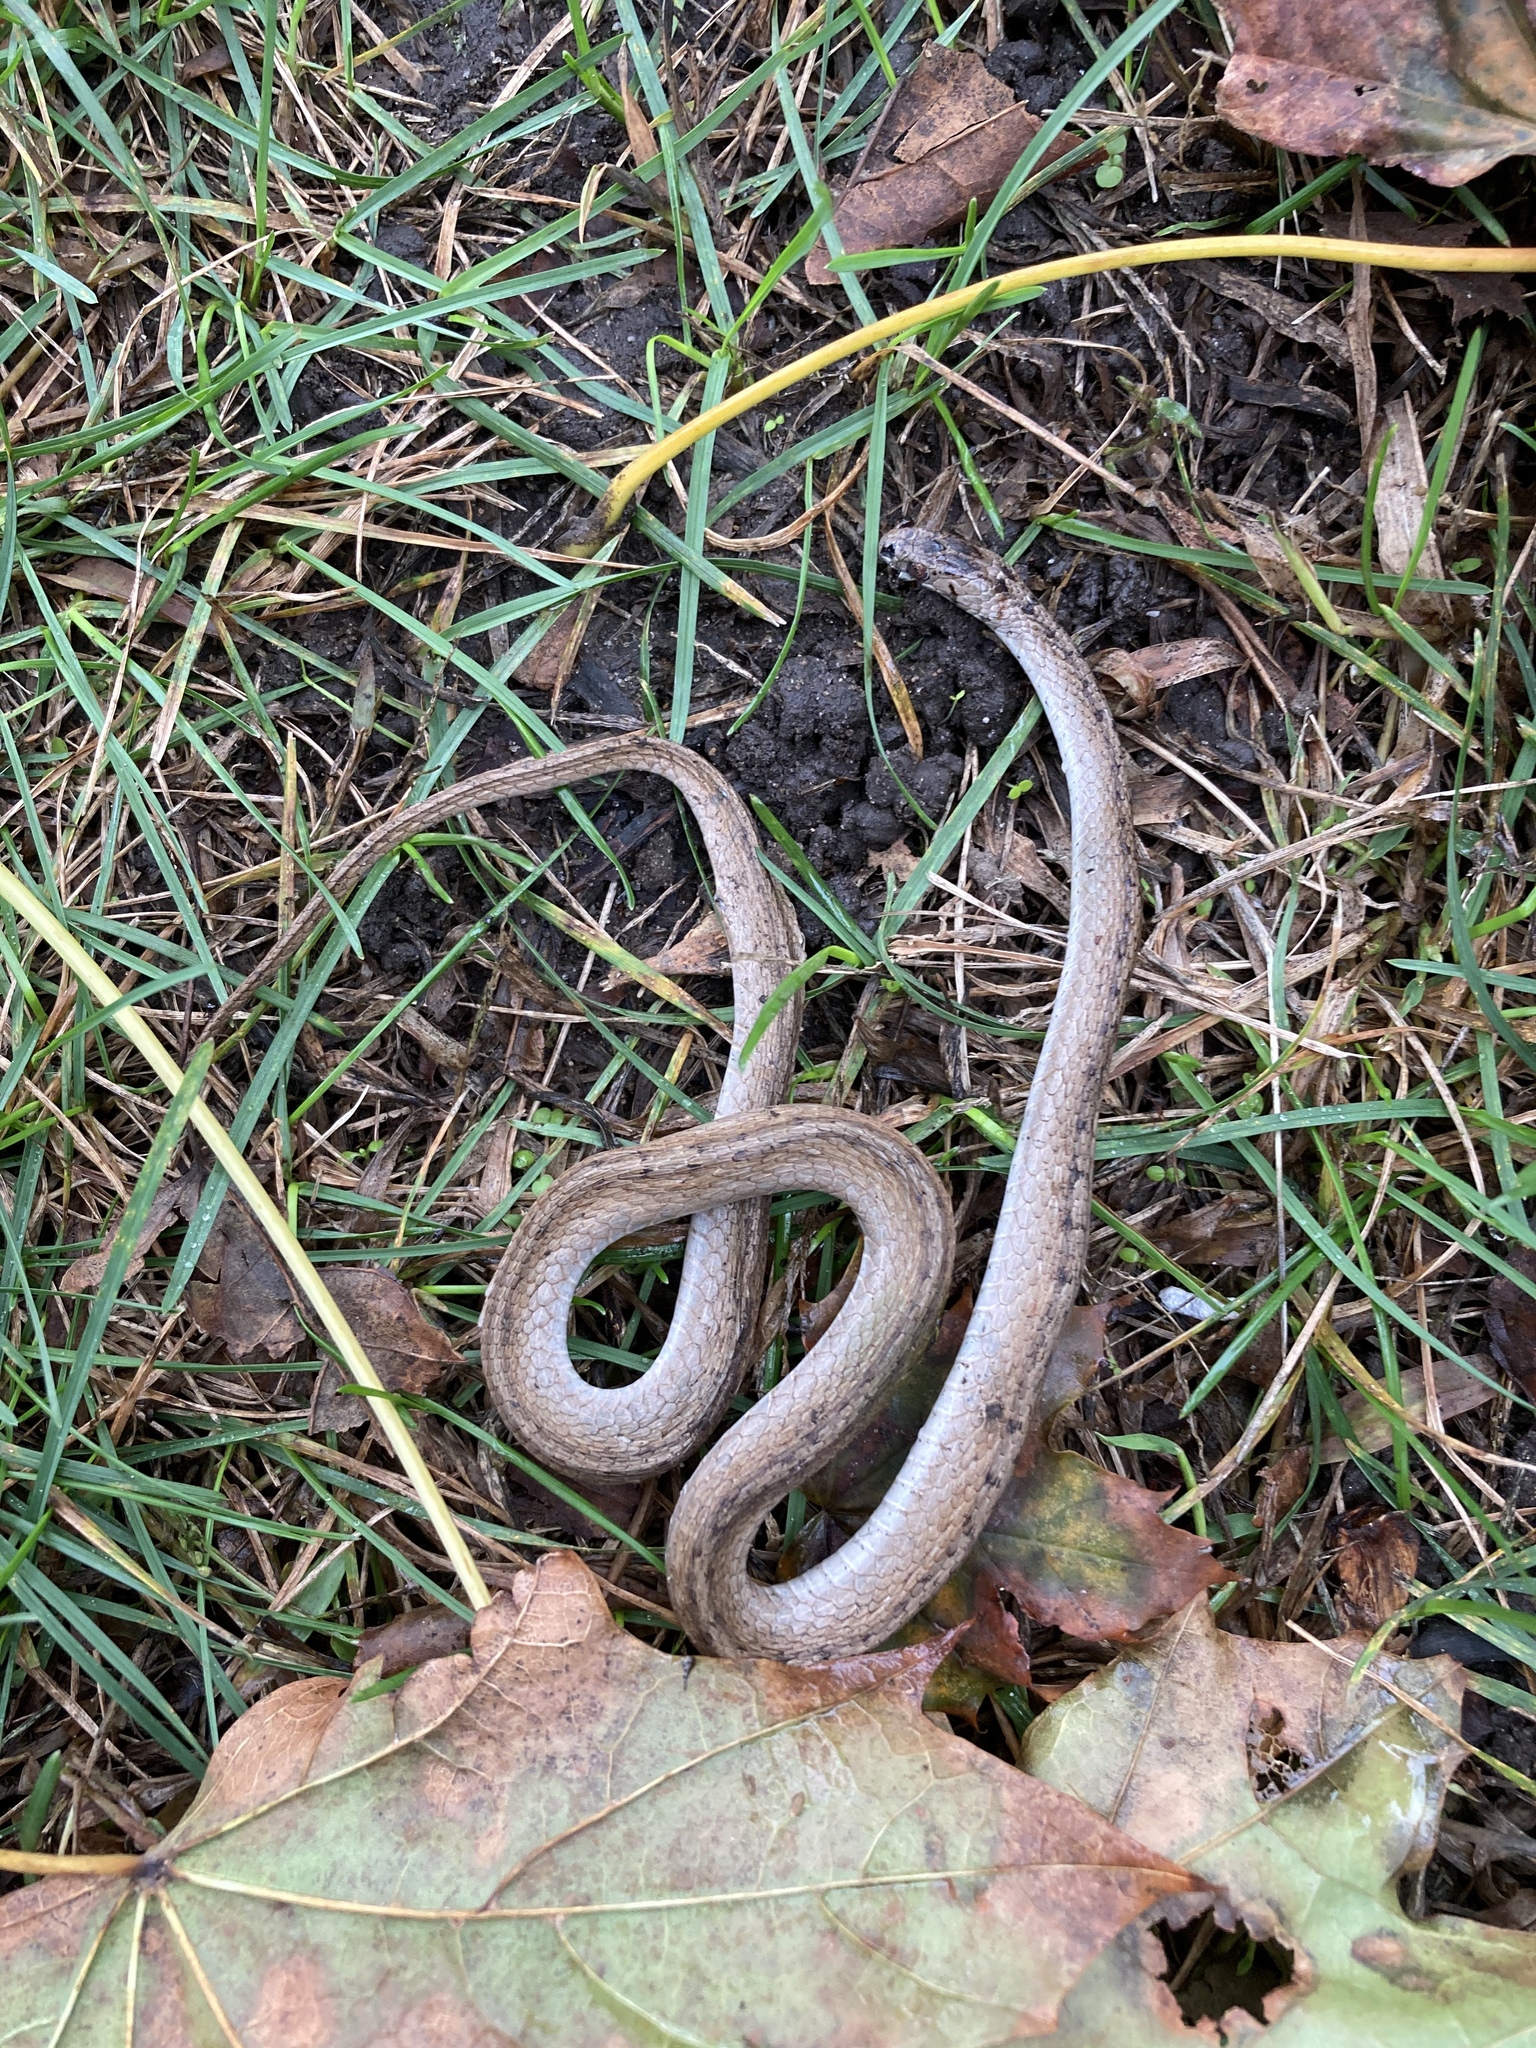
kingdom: Animalia
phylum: Chordata
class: Squamata
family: Colubridae
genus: Storeria
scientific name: Storeria dekayi
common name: (dekay’s) brown snake
